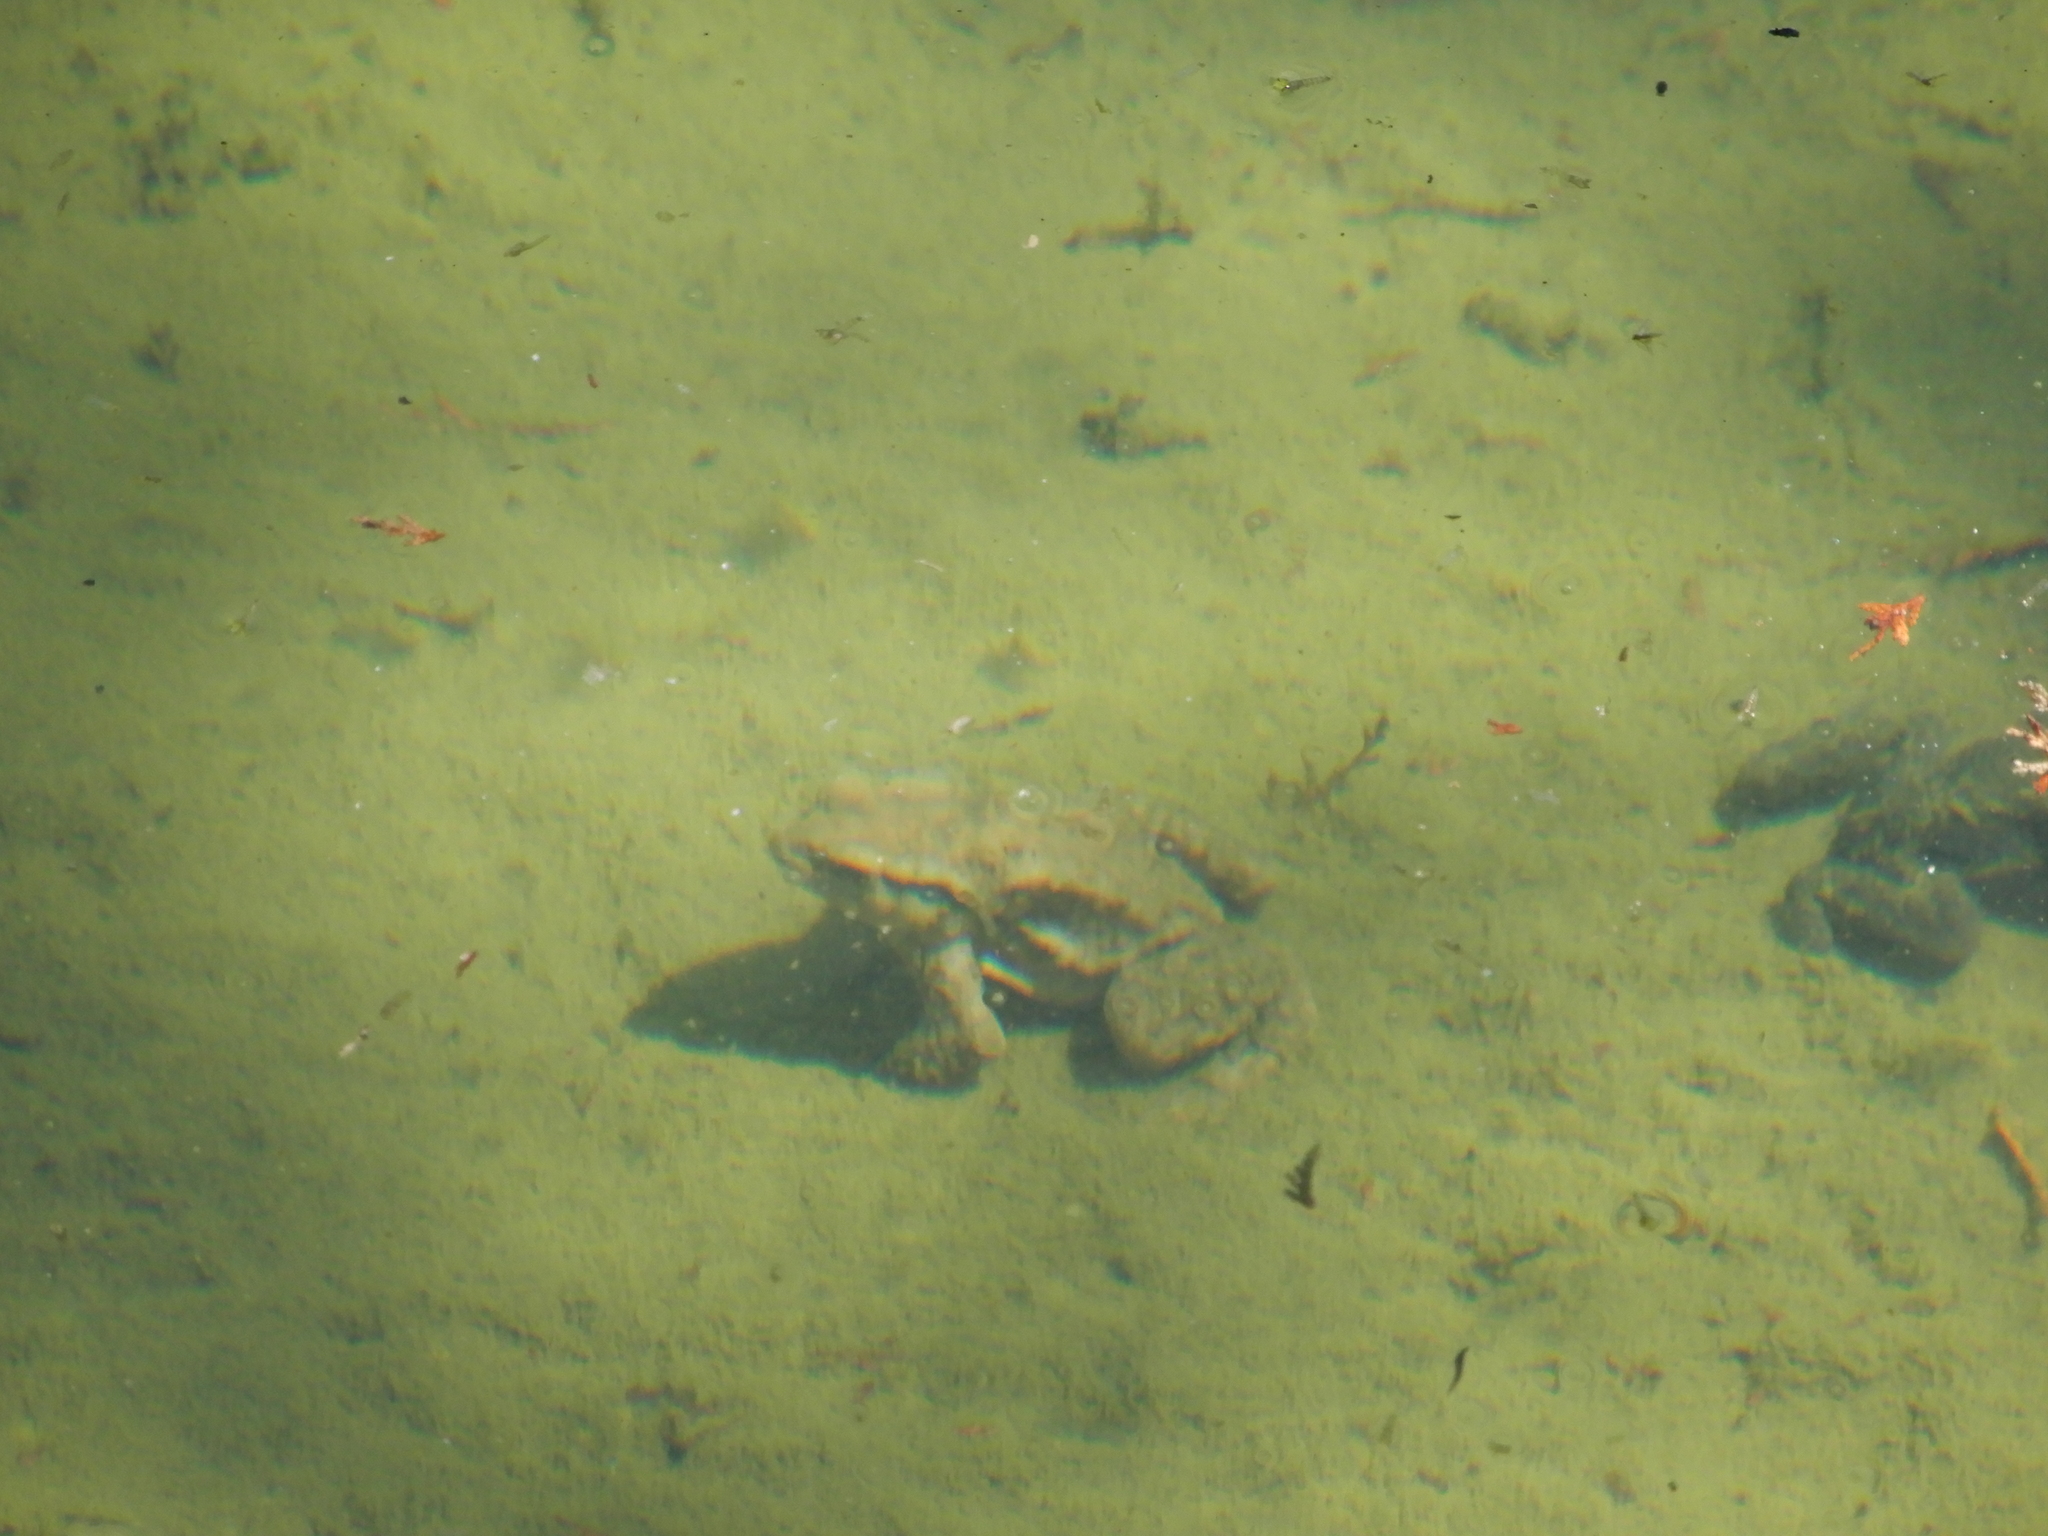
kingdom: Animalia
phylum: Chordata
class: Amphibia
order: Anura
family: Bufonidae
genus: Bufo
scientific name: Bufo bankorensis
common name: Bankor toad
